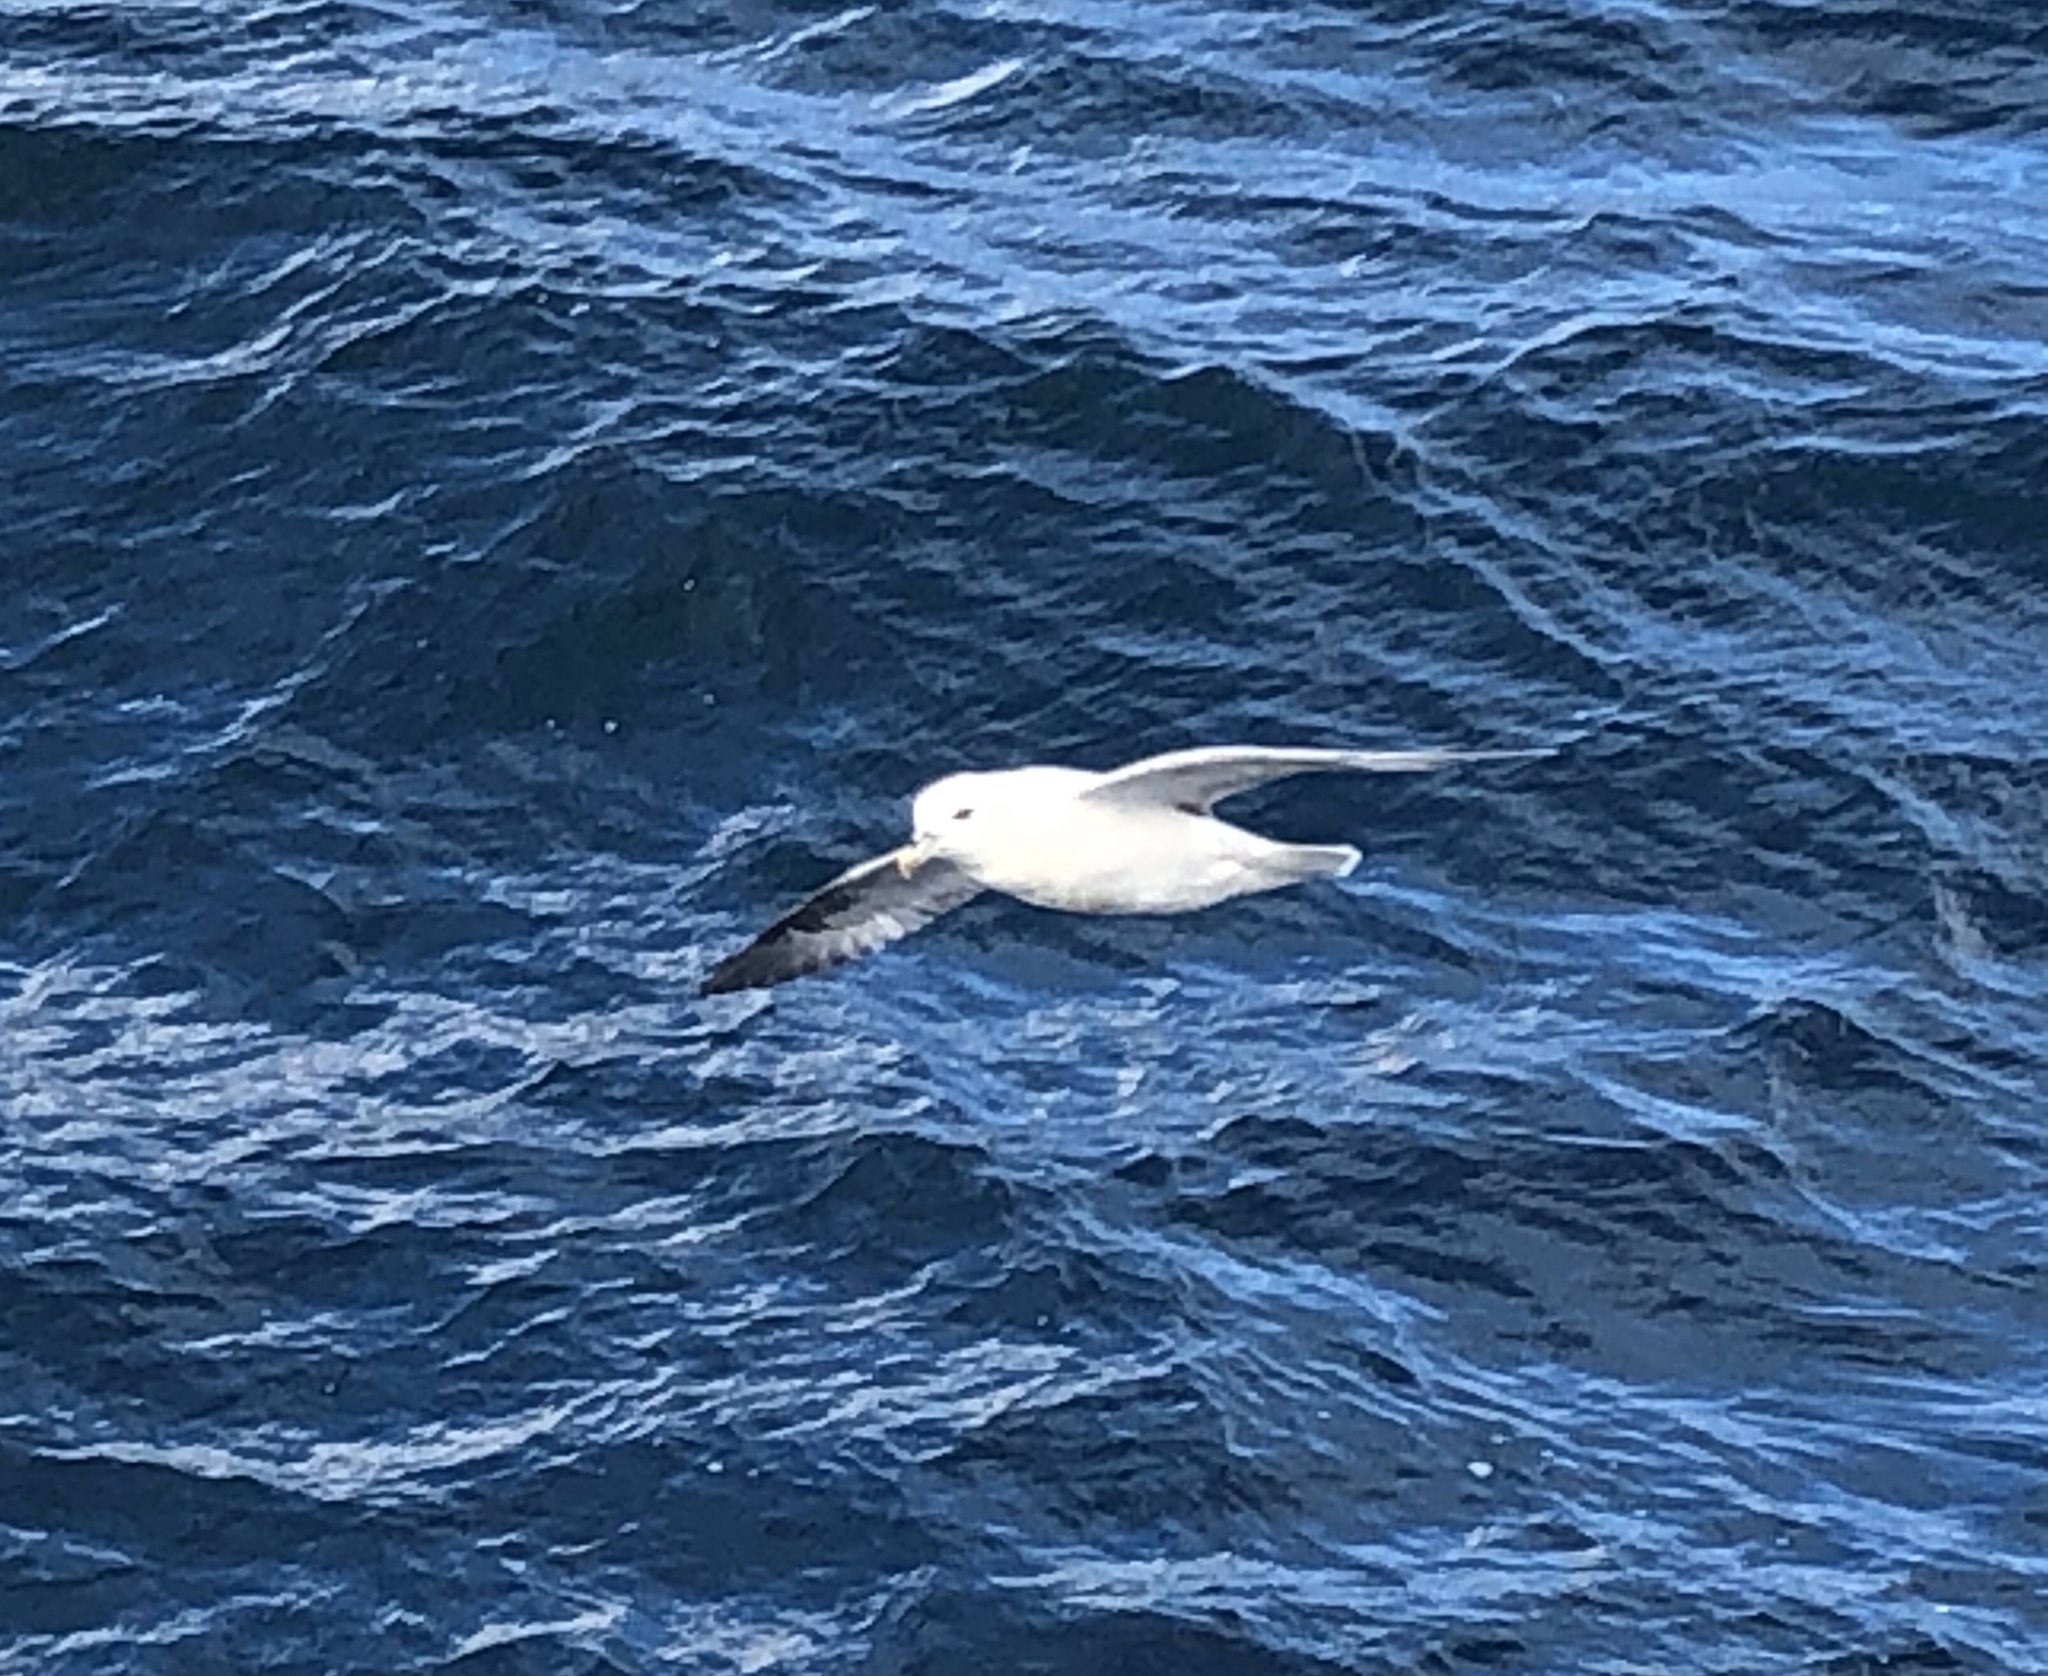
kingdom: Animalia
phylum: Chordata
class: Aves
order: Procellariiformes
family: Procellariidae
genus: Fulmarus
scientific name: Fulmarus glacialis
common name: Northern fulmar
